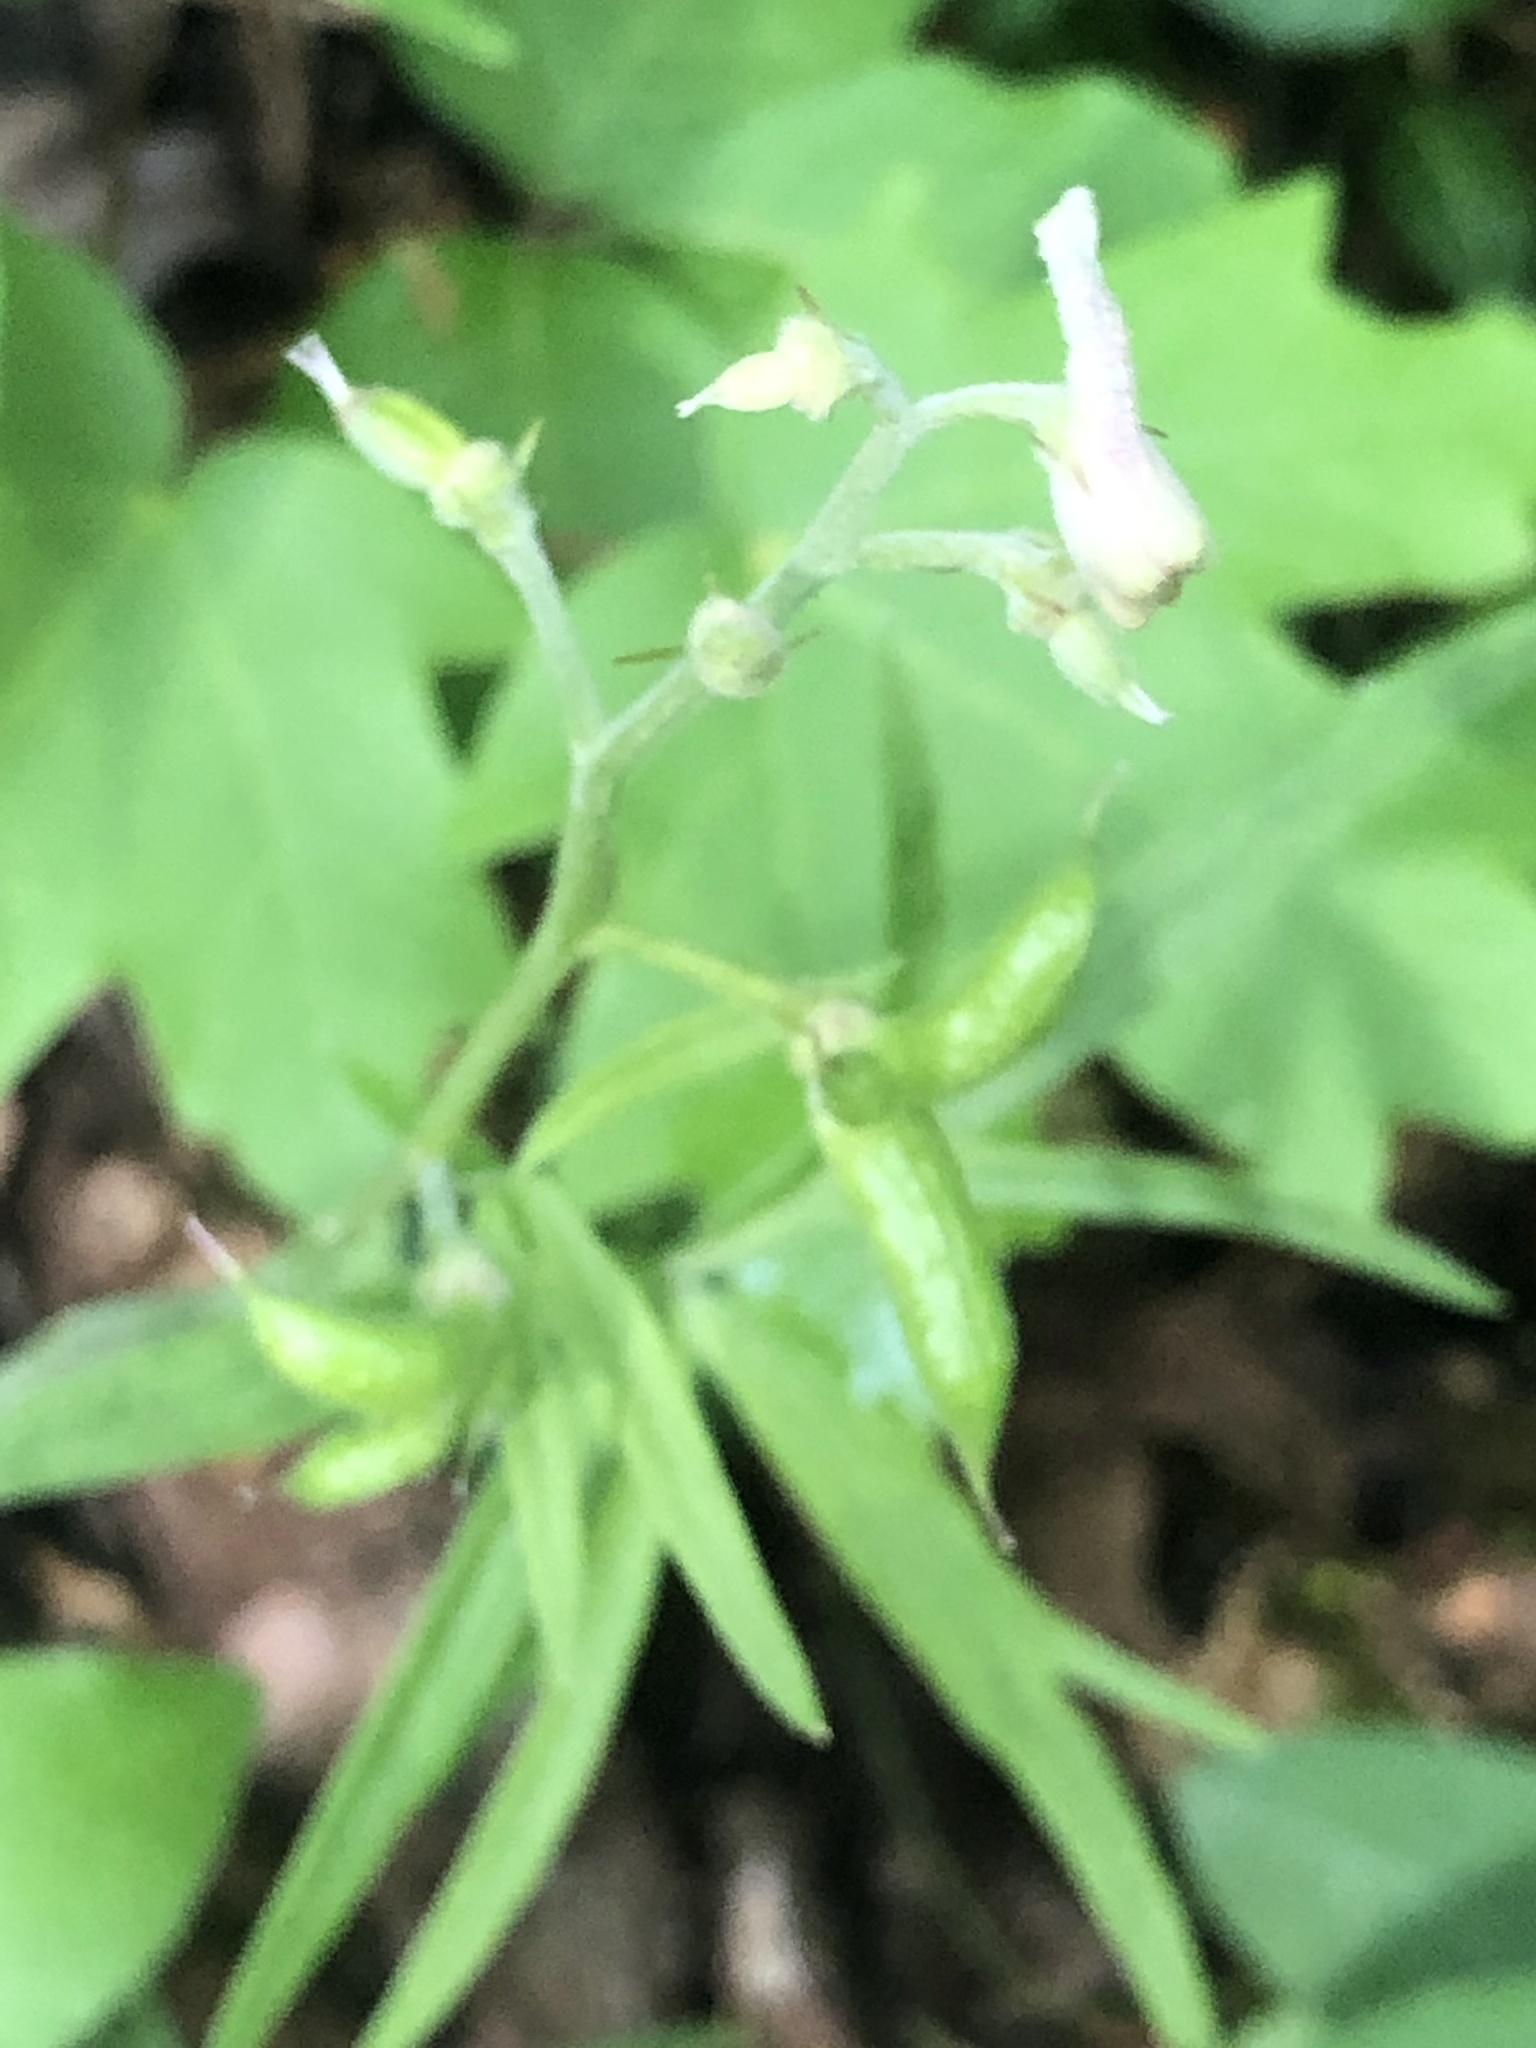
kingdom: Plantae
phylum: Tracheophyta
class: Magnoliopsida
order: Ranunculales
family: Ranunculaceae
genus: Delphinium
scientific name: Delphinium tricorne
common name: Dwarf larkspur
